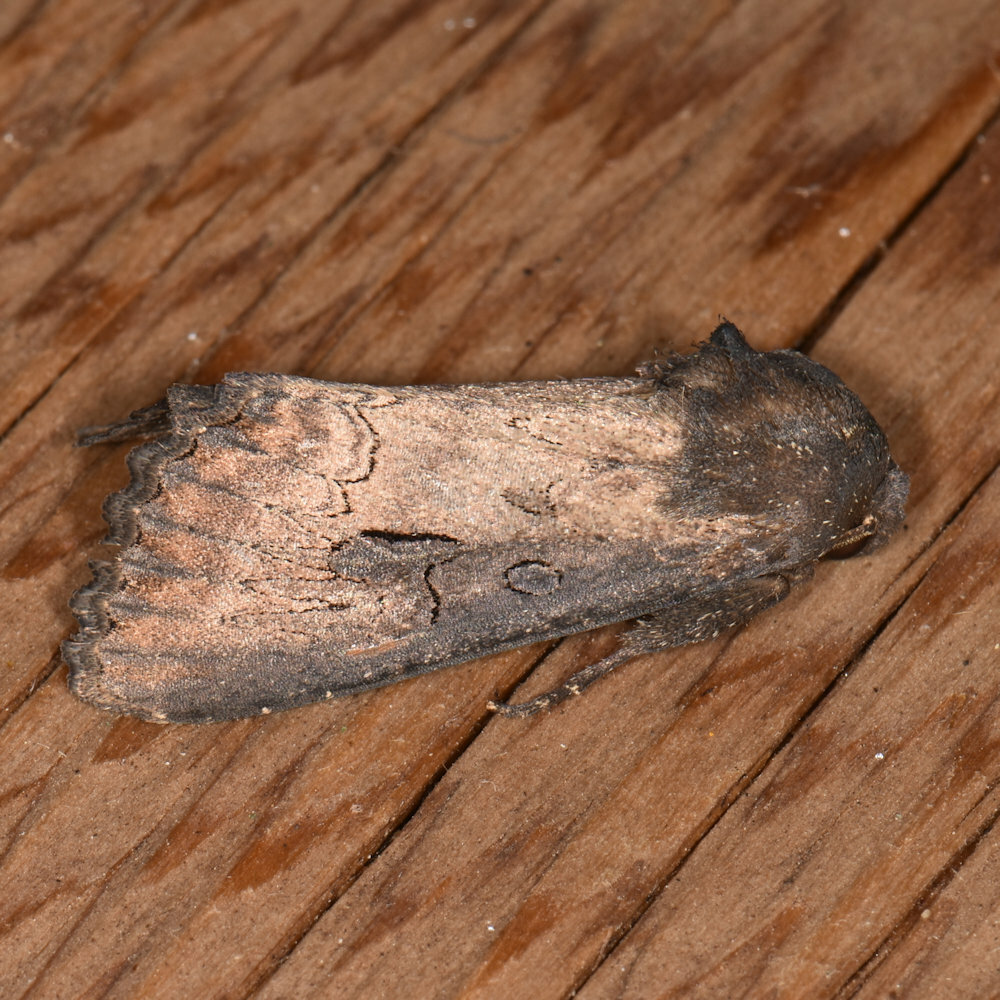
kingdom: Animalia
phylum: Arthropoda
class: Insecta
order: Lepidoptera
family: Noctuidae
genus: Macronoctua
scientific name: Macronoctua onusta
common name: Iris borer
